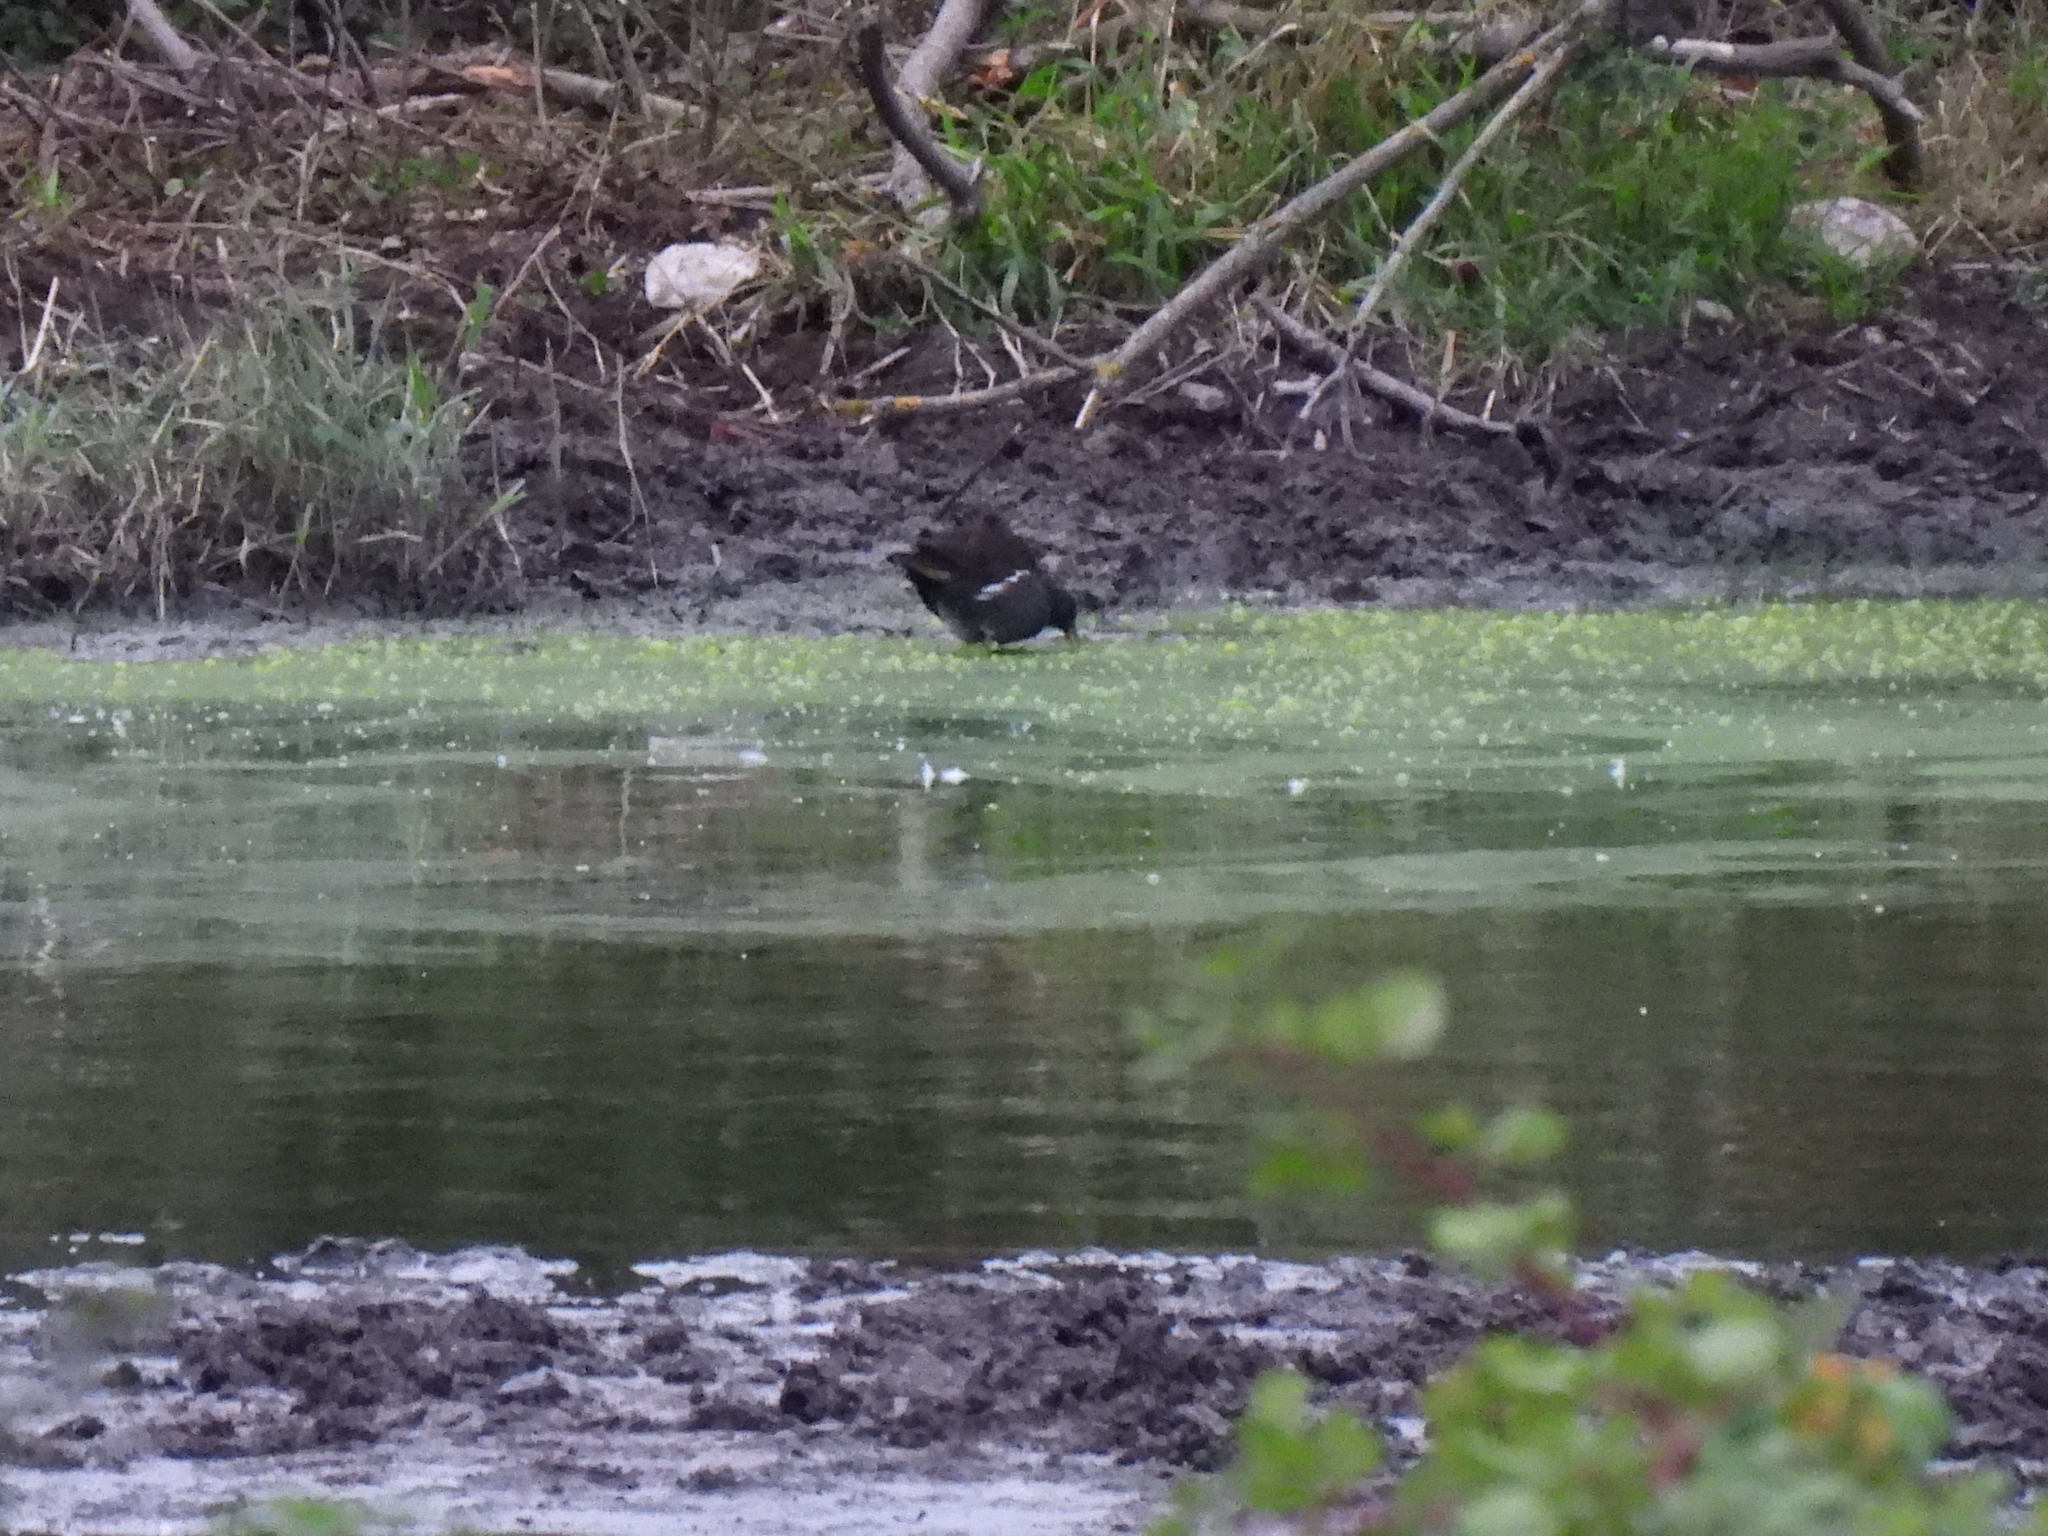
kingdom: Animalia
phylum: Chordata
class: Aves
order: Gruiformes
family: Rallidae
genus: Gallinula
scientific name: Gallinula chloropus
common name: Common moorhen
